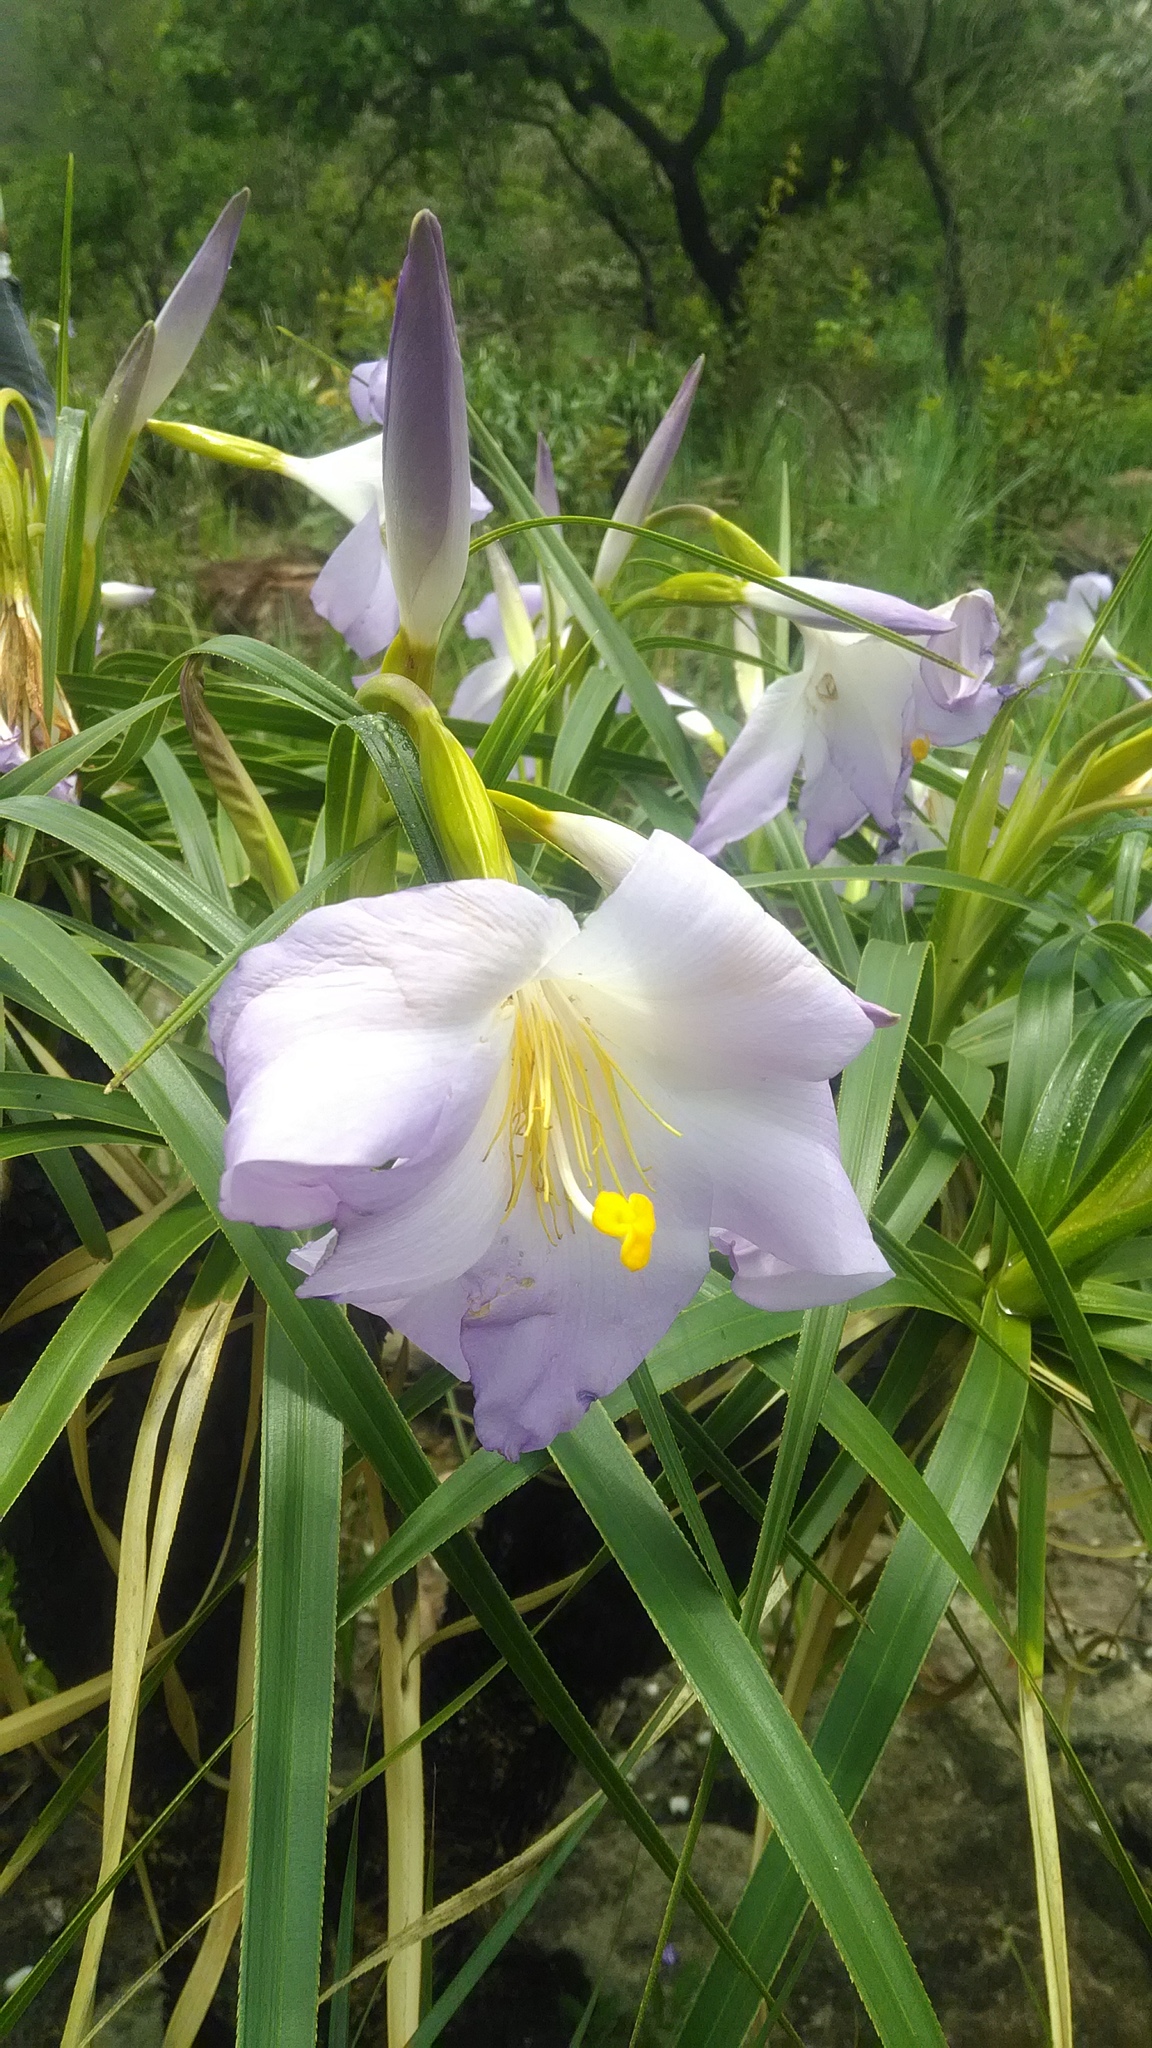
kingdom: Plantae
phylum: Tracheophyta
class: Liliopsida
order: Pandanales
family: Velloziaceae
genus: Vellozia
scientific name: Vellozia peripherica
